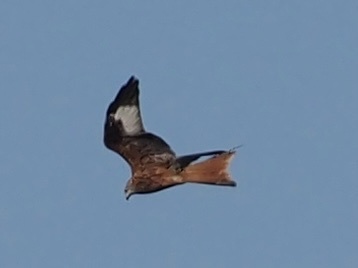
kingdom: Animalia
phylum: Chordata
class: Aves
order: Accipitriformes
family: Accipitridae
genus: Milvus
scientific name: Milvus milvus
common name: Red kite
